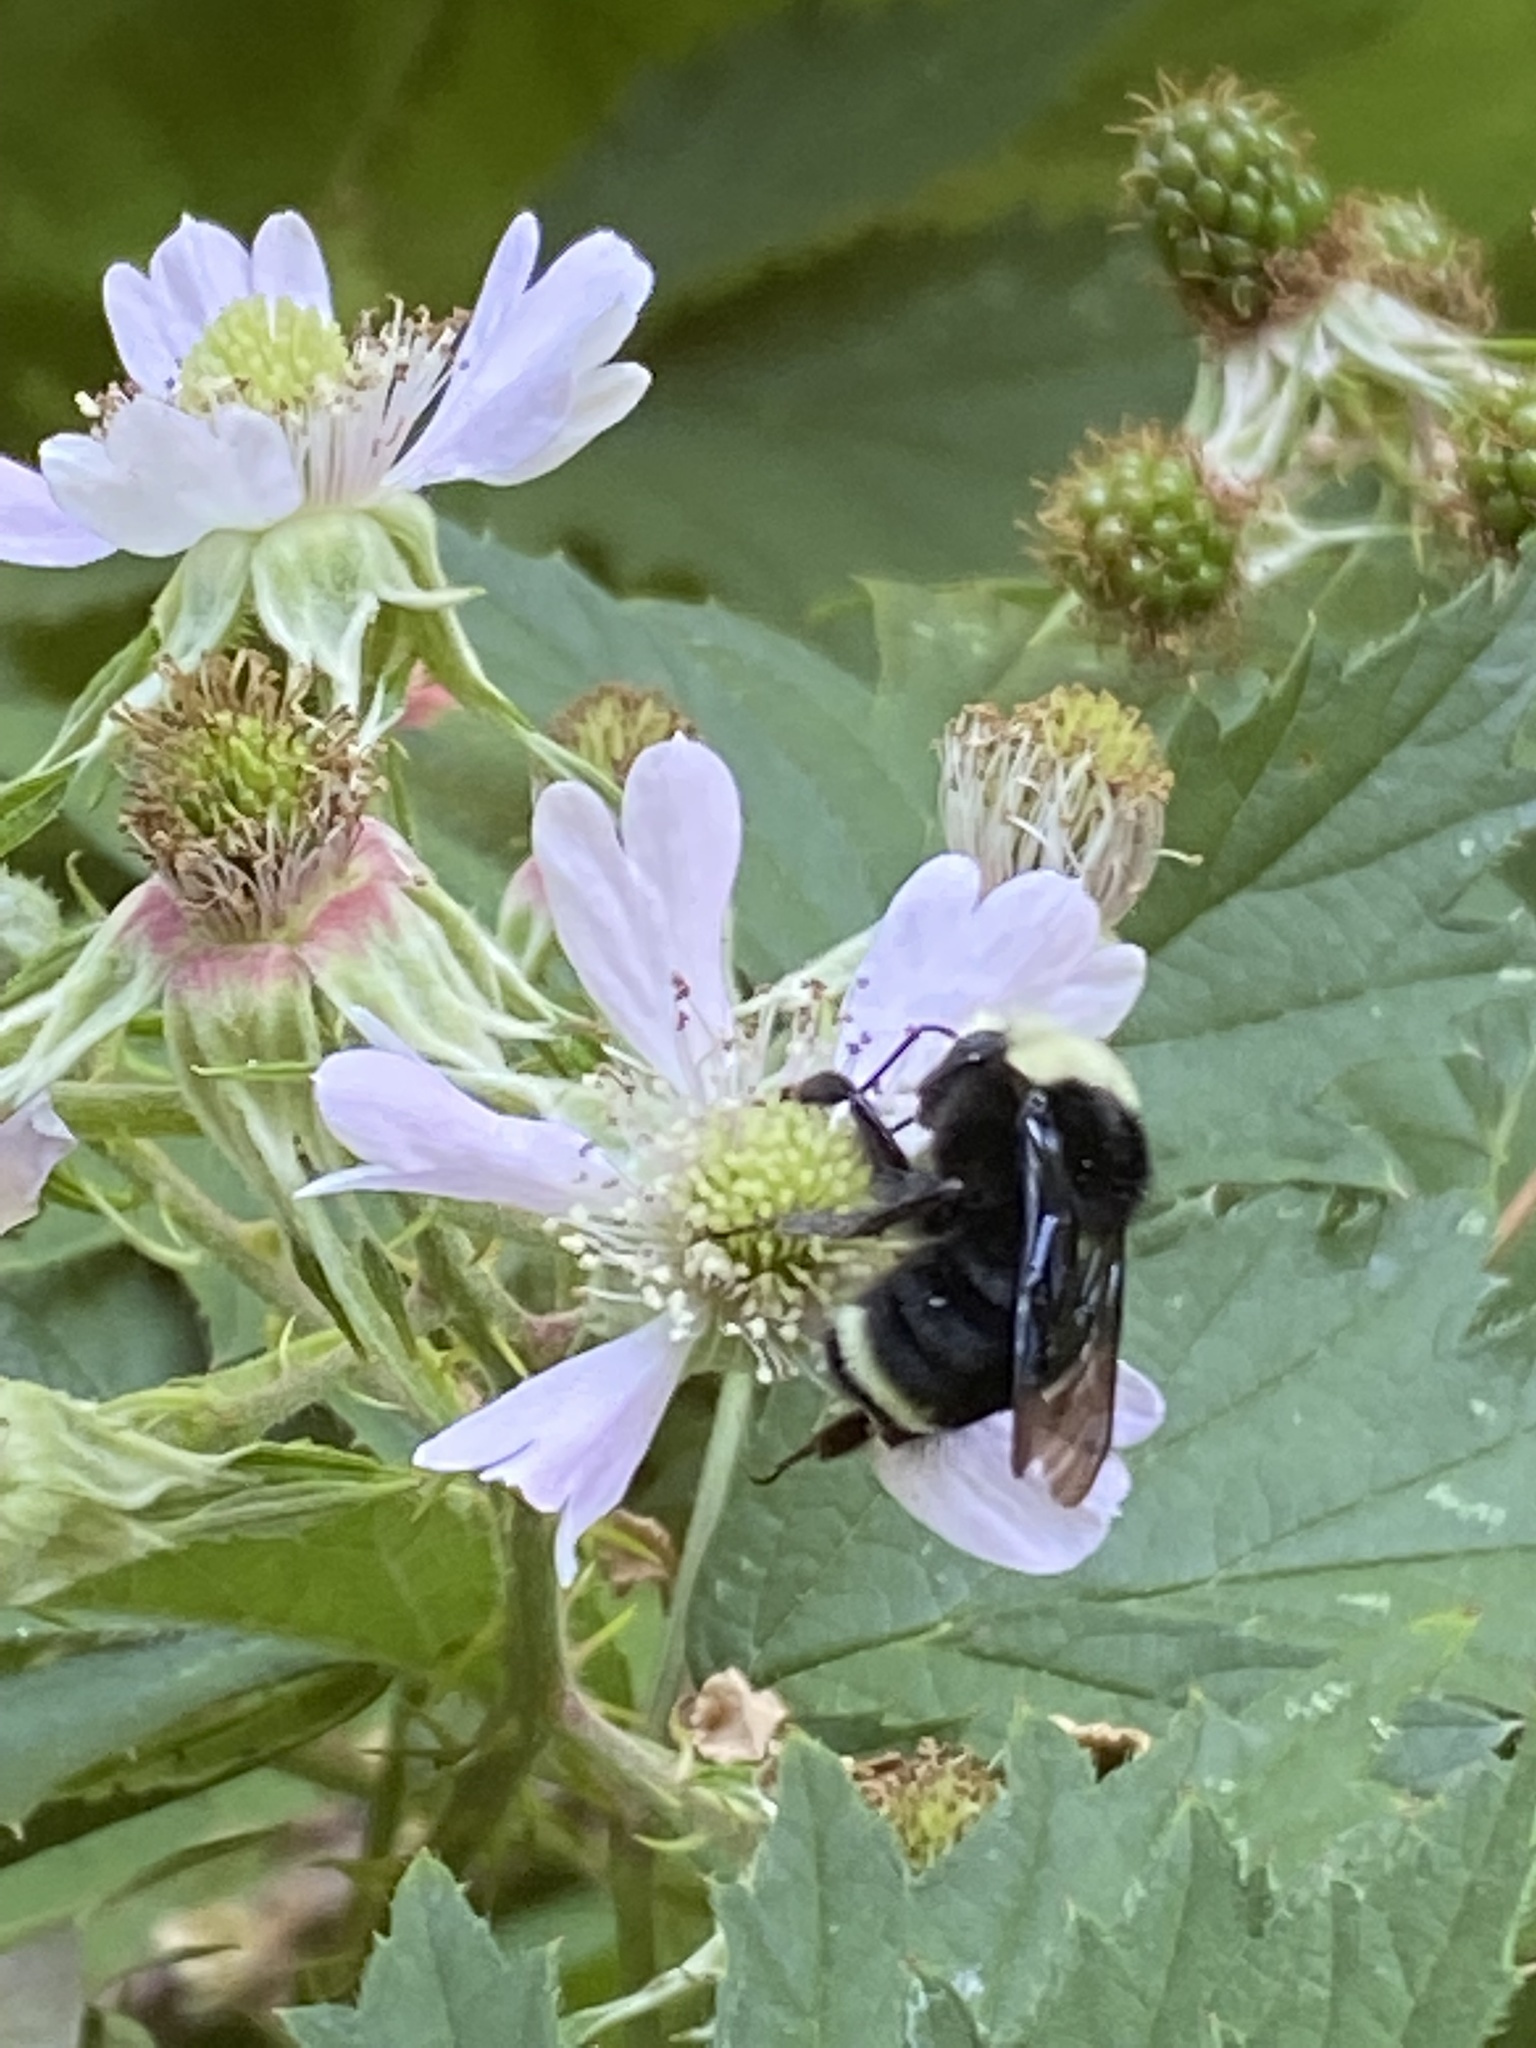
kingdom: Animalia
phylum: Arthropoda
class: Insecta
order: Hymenoptera
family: Apidae
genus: Bombus
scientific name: Bombus vosnesenskii
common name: Vosnesensky bumble bee
